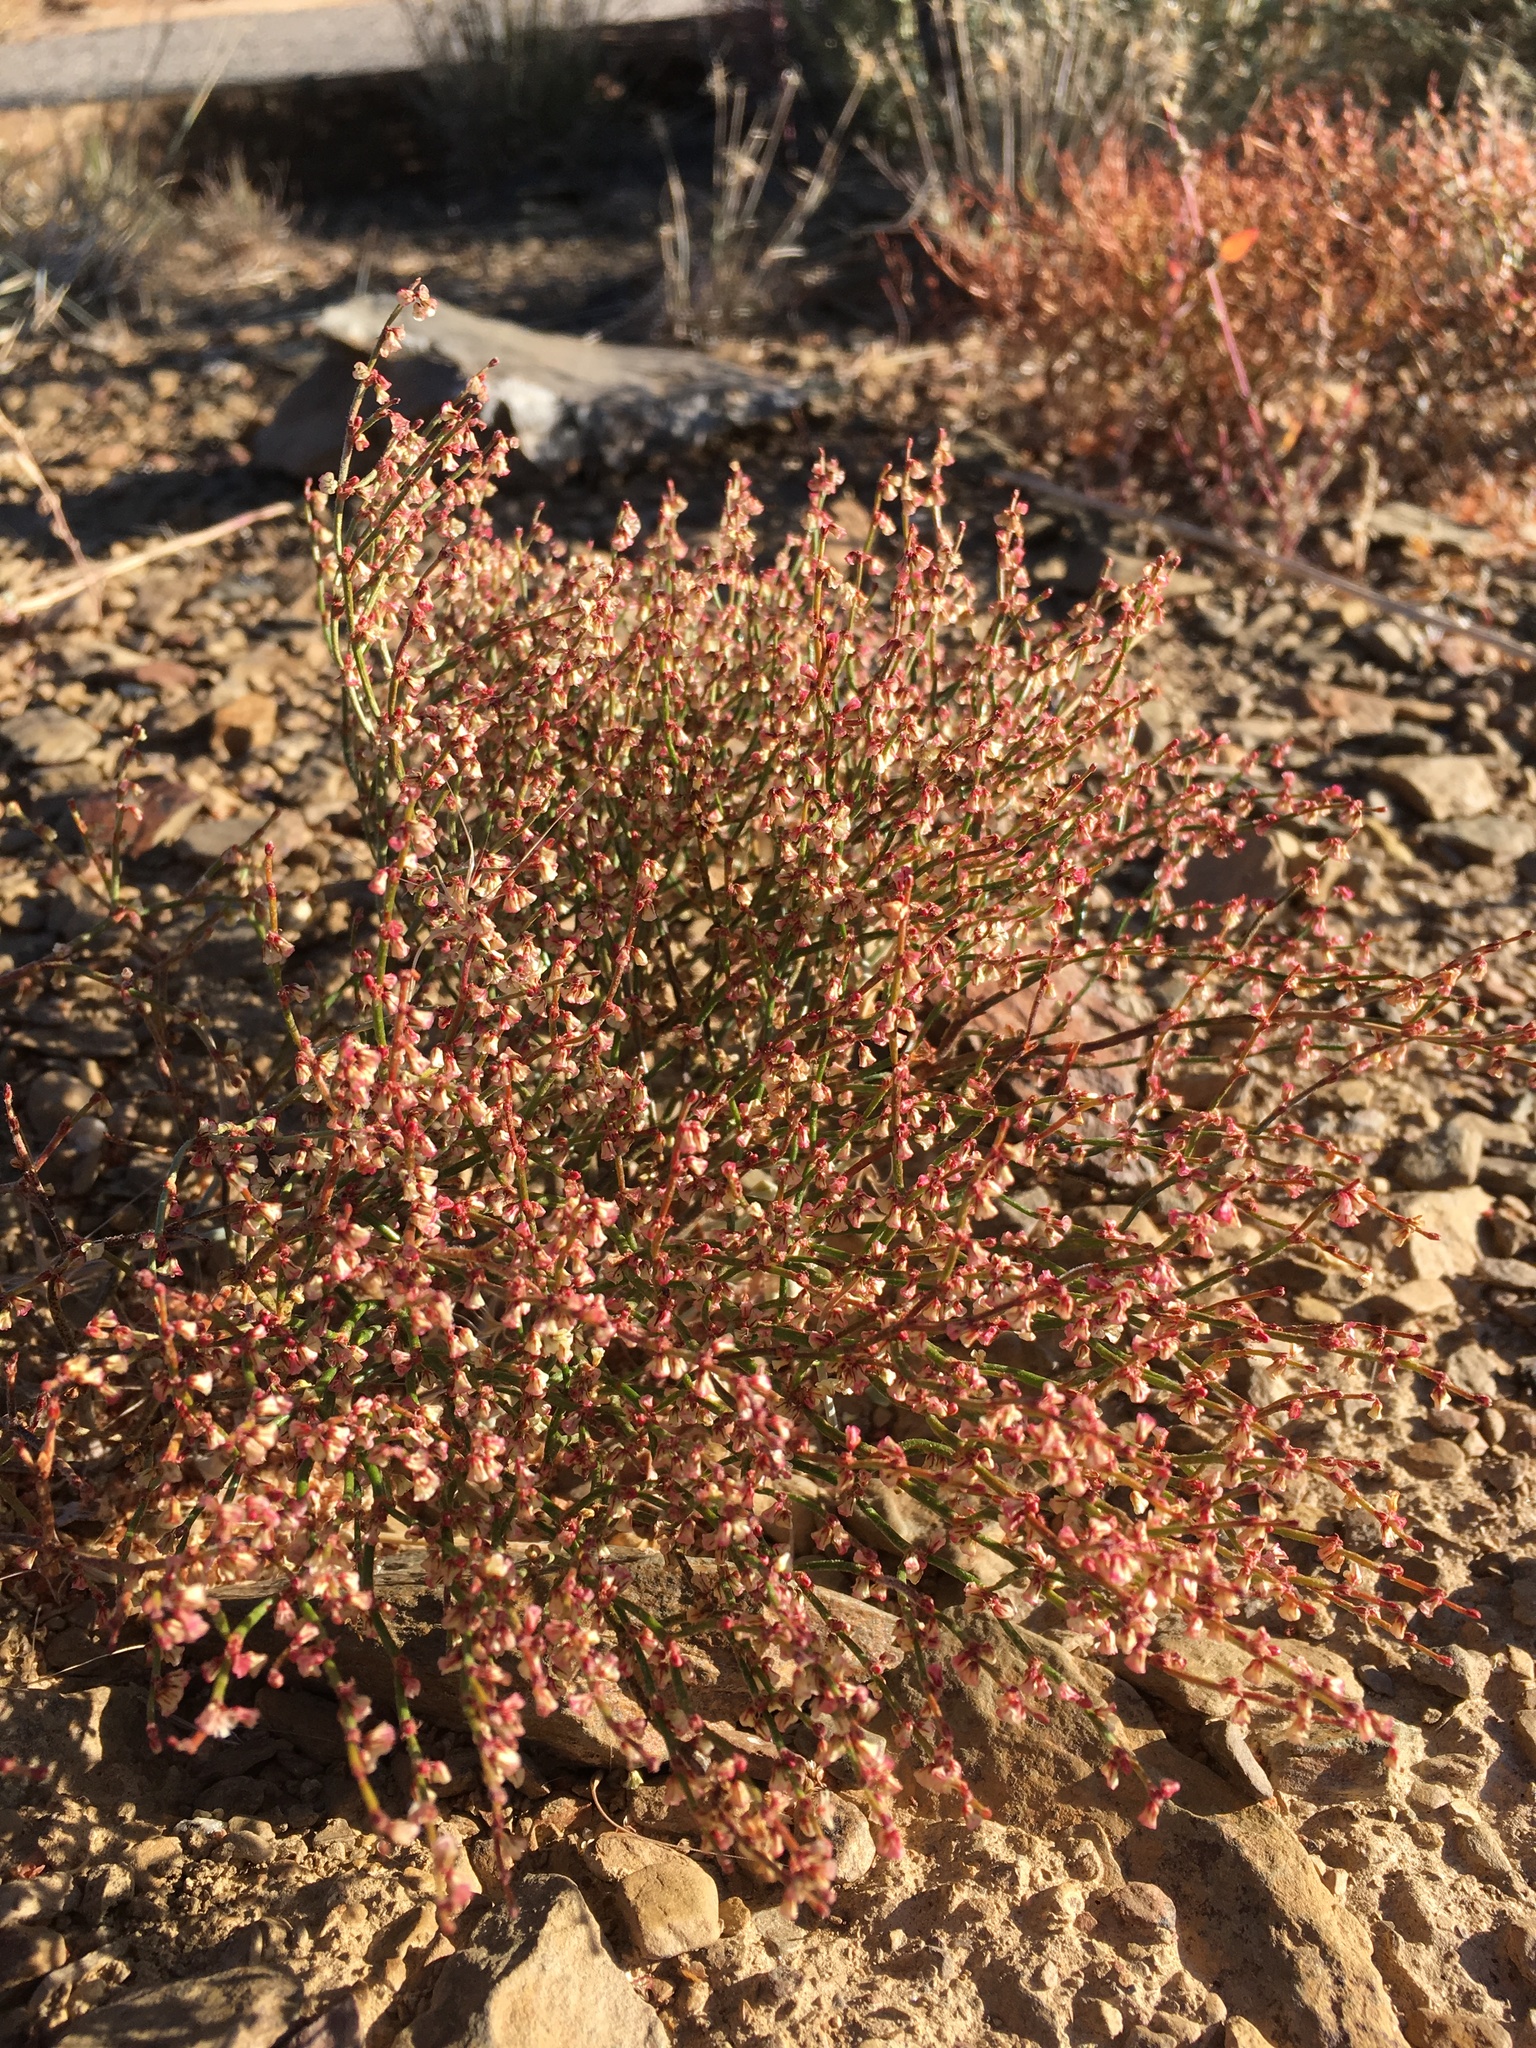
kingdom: Plantae
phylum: Tracheophyta
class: Magnoliopsida
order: Caryophyllales
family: Polygonaceae
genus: Eriogonum
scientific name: Eriogonum nidularium
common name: Bird's-nest wild buckwheat
